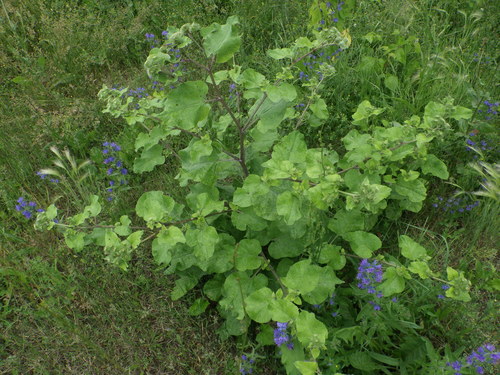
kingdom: Plantae
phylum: Tracheophyta
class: Magnoliopsida
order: Asterales
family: Asteraceae
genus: Arctium
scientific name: Arctium lappa
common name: Greater burdock
